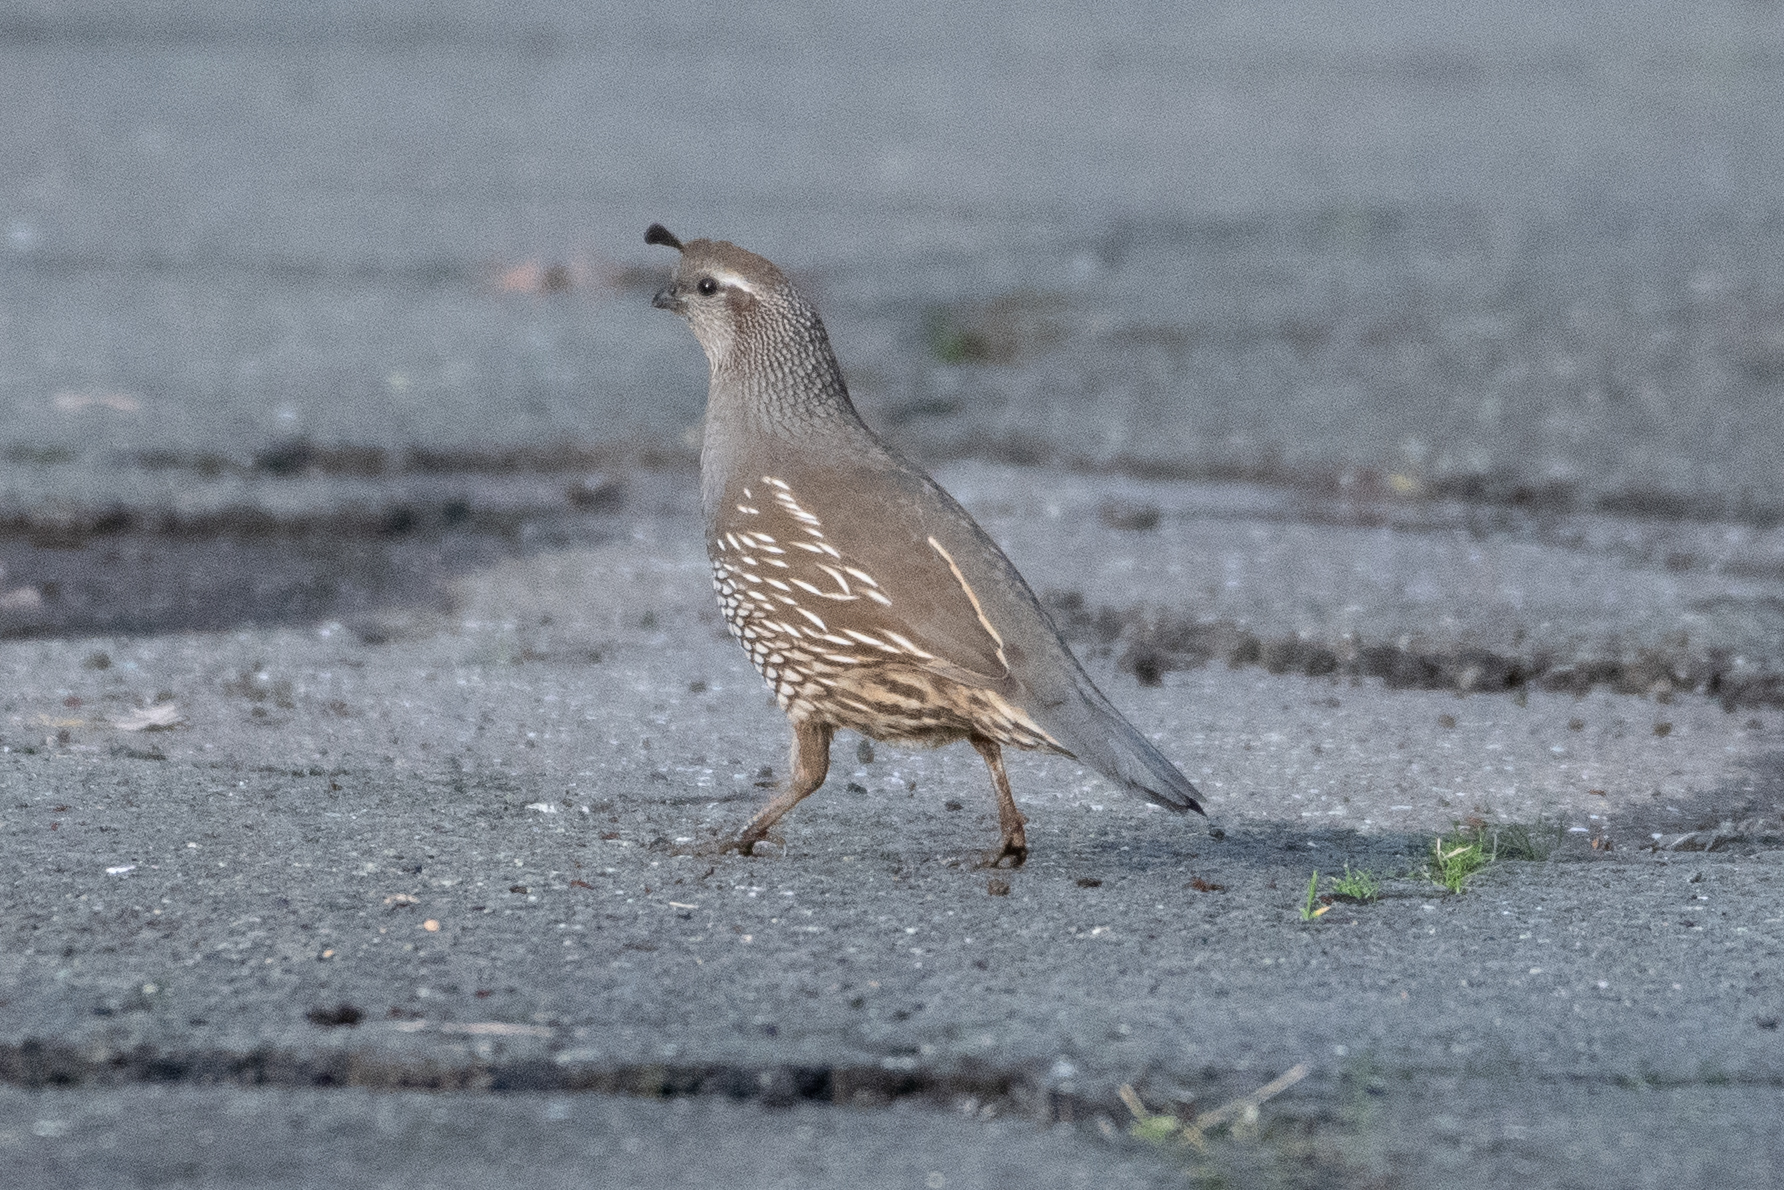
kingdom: Animalia
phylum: Chordata
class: Aves
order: Galliformes
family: Odontophoridae
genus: Callipepla
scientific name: Callipepla californica
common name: California quail
